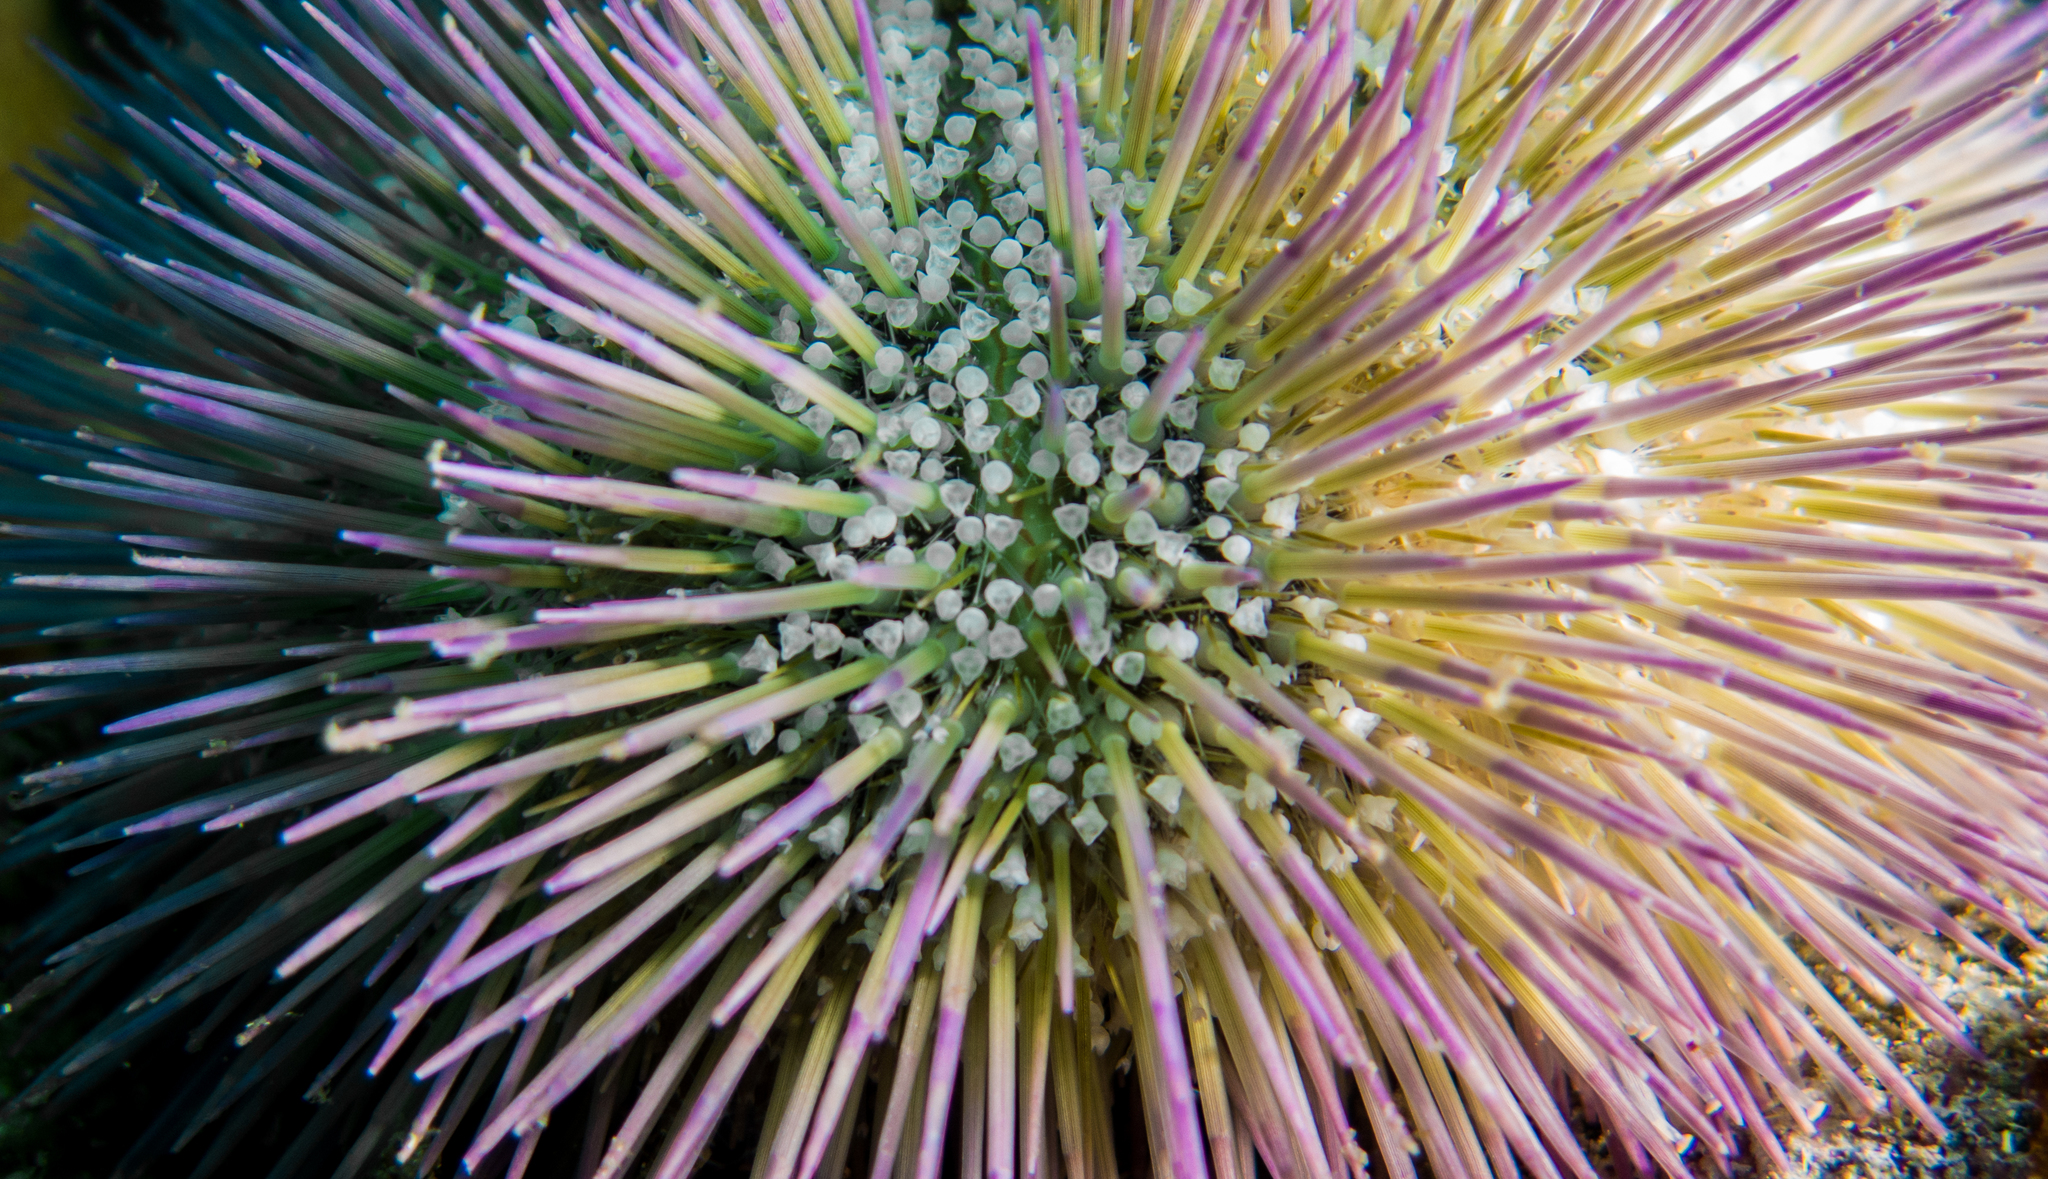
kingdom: Animalia
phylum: Echinodermata
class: Echinoidea
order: Camarodonta
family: Toxopneustidae
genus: Lytechinus
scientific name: Lytechinus variegatus
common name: Variegated urchin
